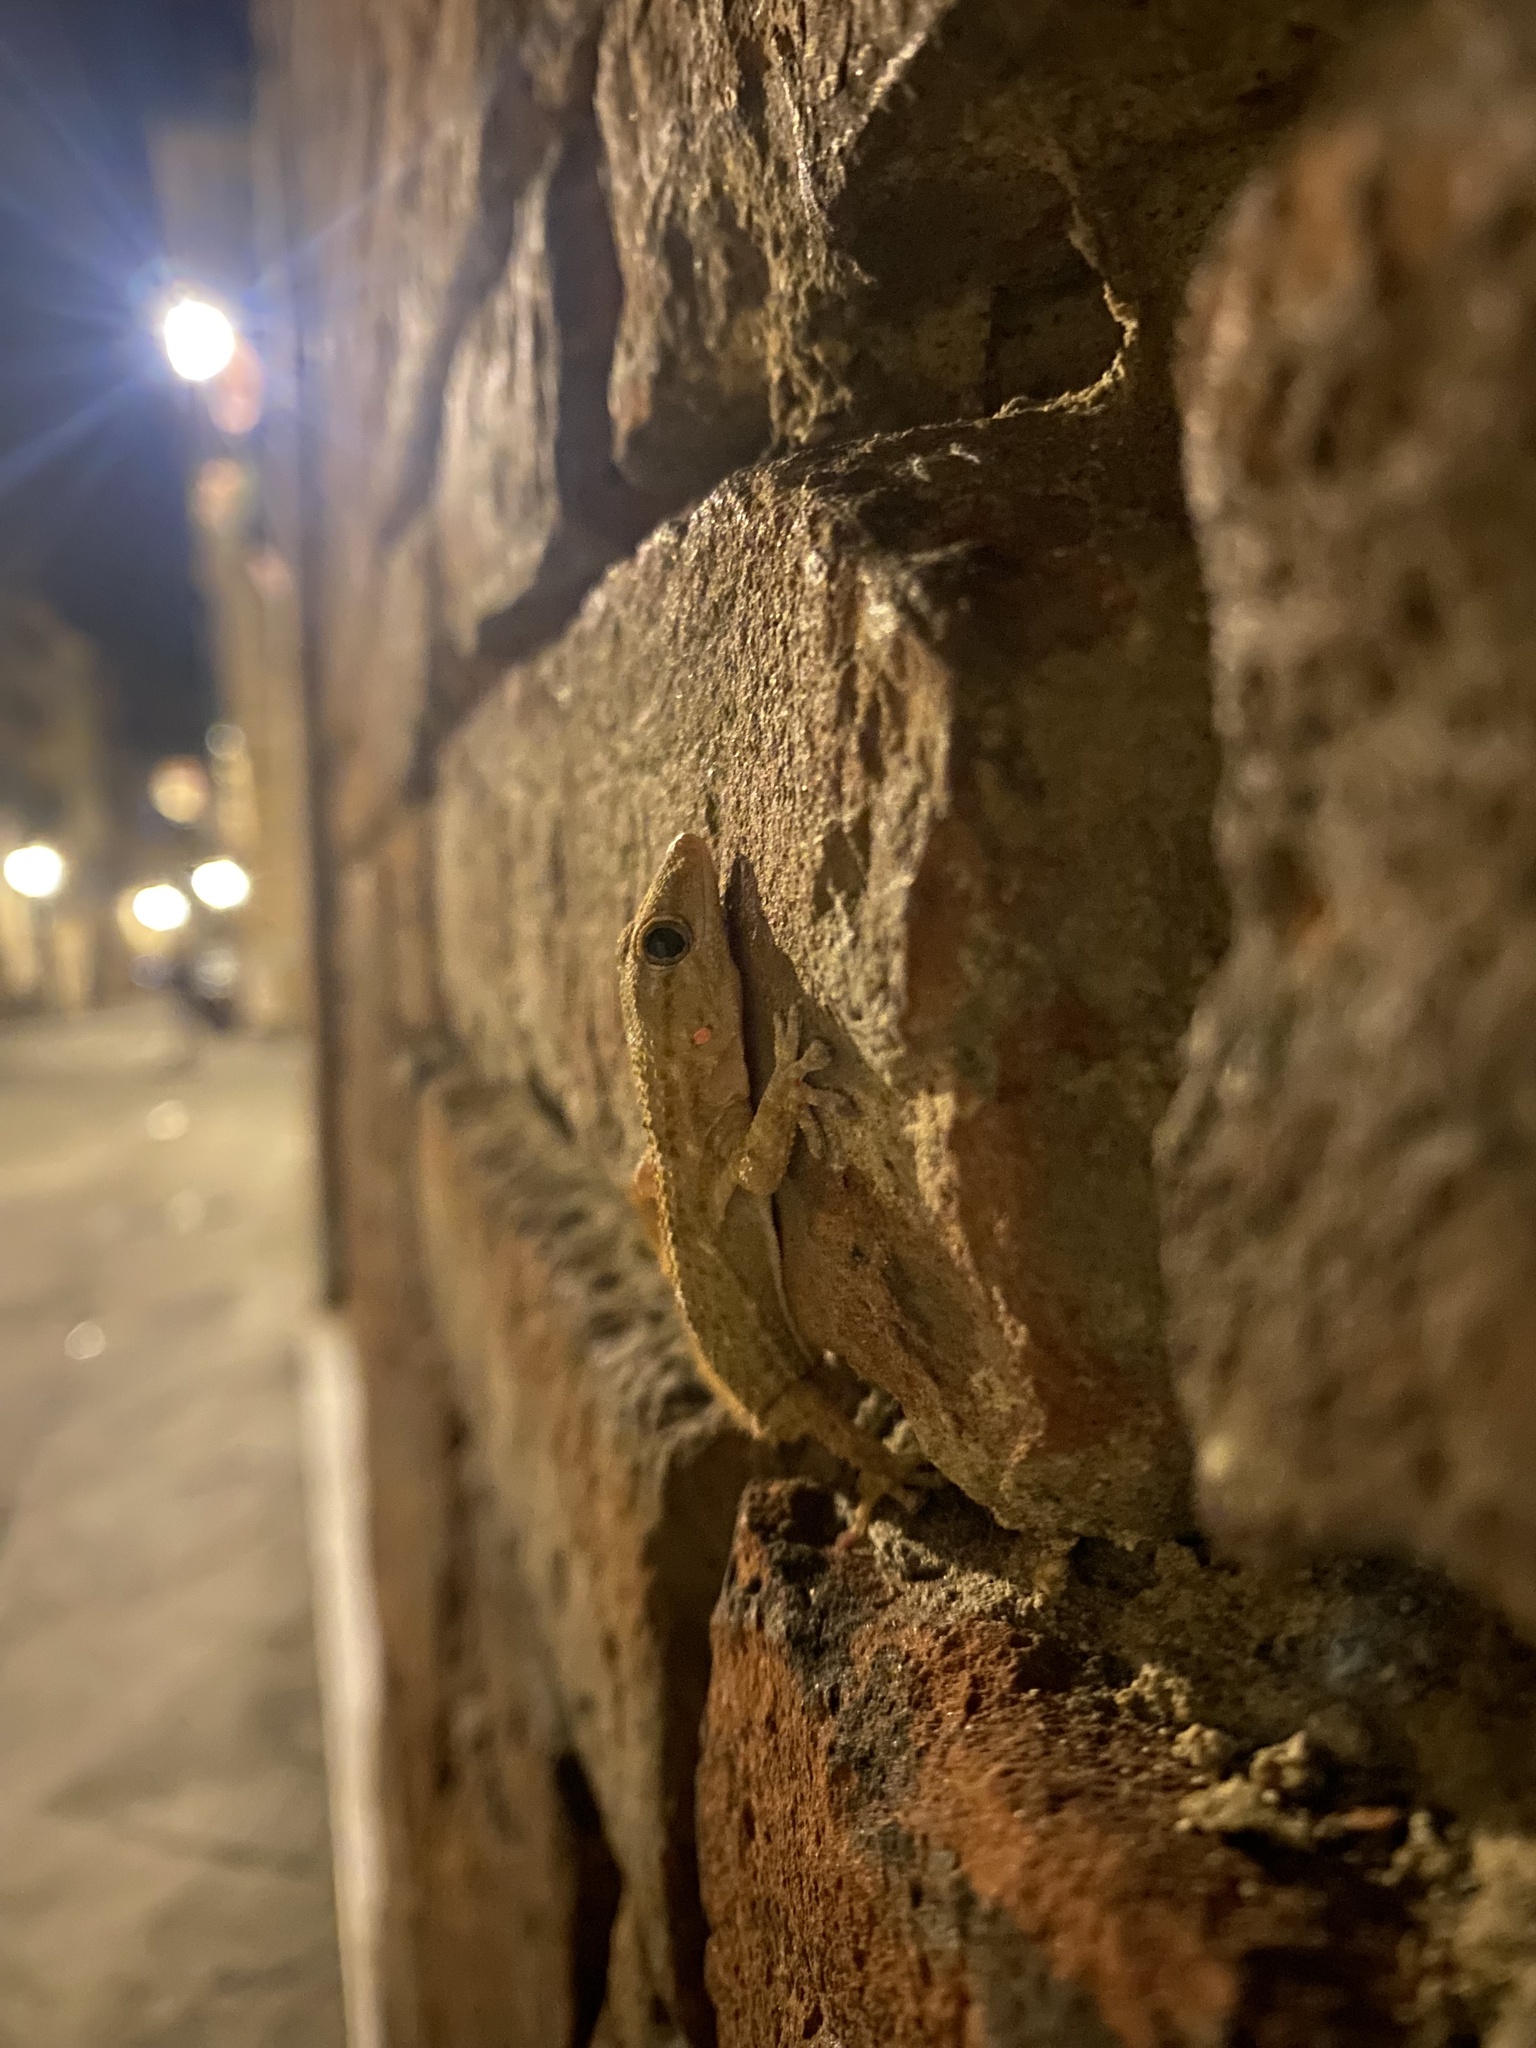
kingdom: Animalia
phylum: Chordata
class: Squamata
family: Phyllodactylidae
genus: Tarentola
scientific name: Tarentola mauritanica
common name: Moorish gecko
